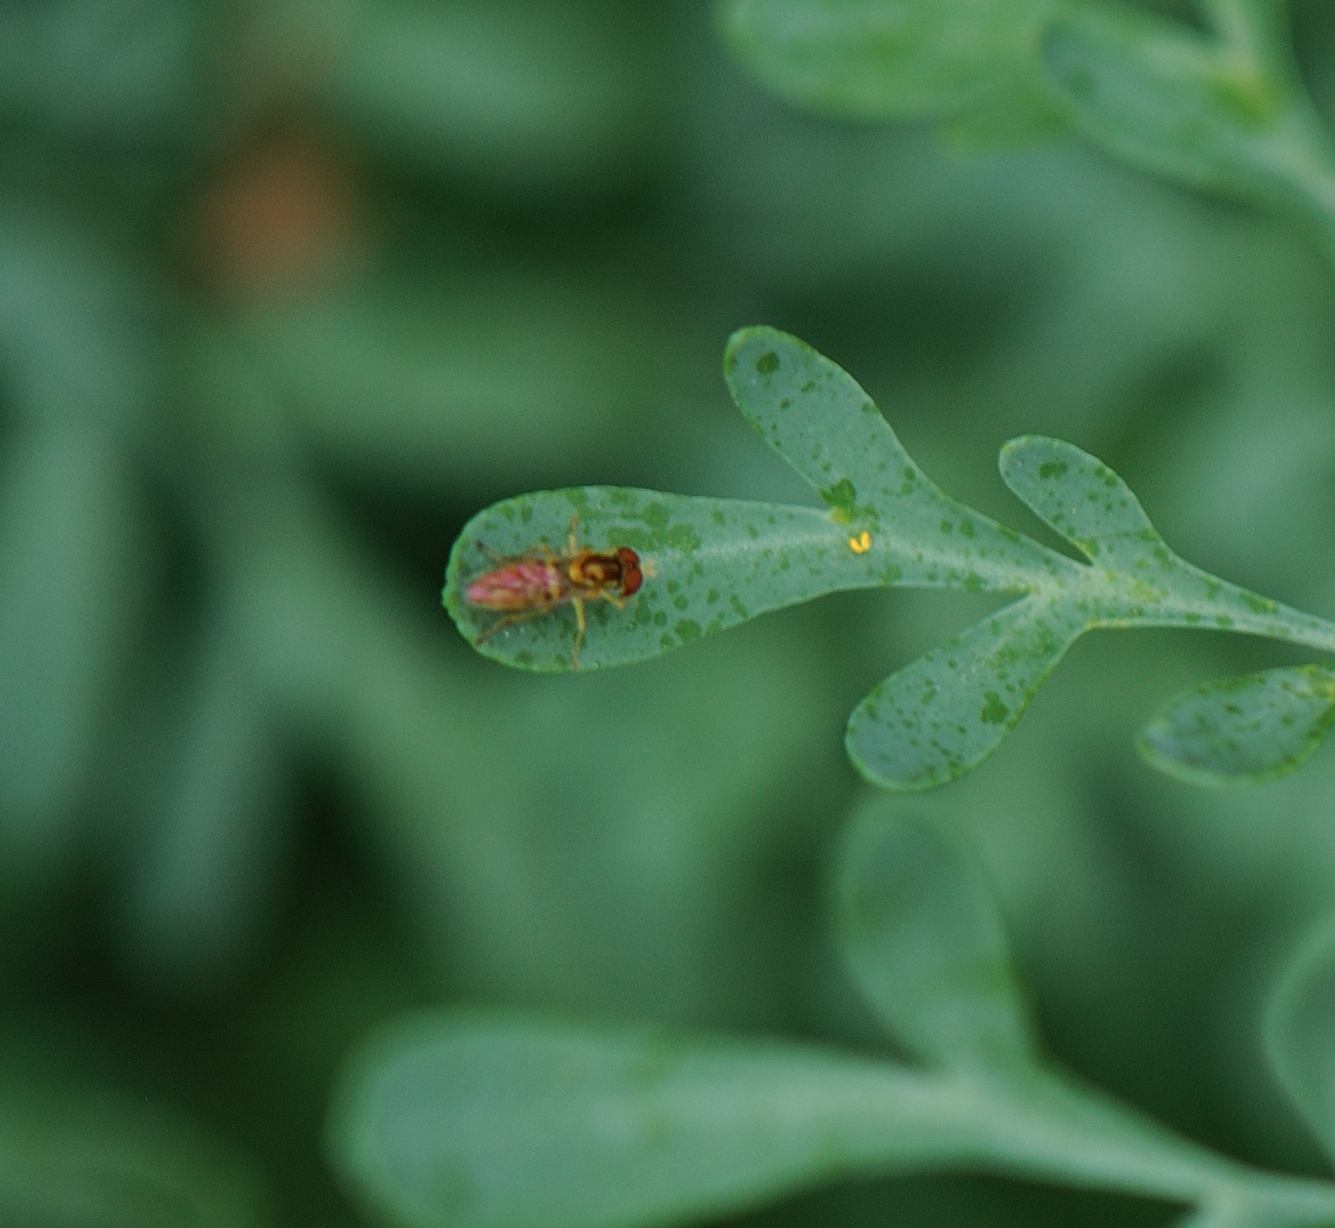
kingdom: Animalia
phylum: Arthropoda
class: Insecta
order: Diptera
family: Syrphidae
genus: Toxomerus
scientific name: Toxomerus marginatus
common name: Syrphid fly
